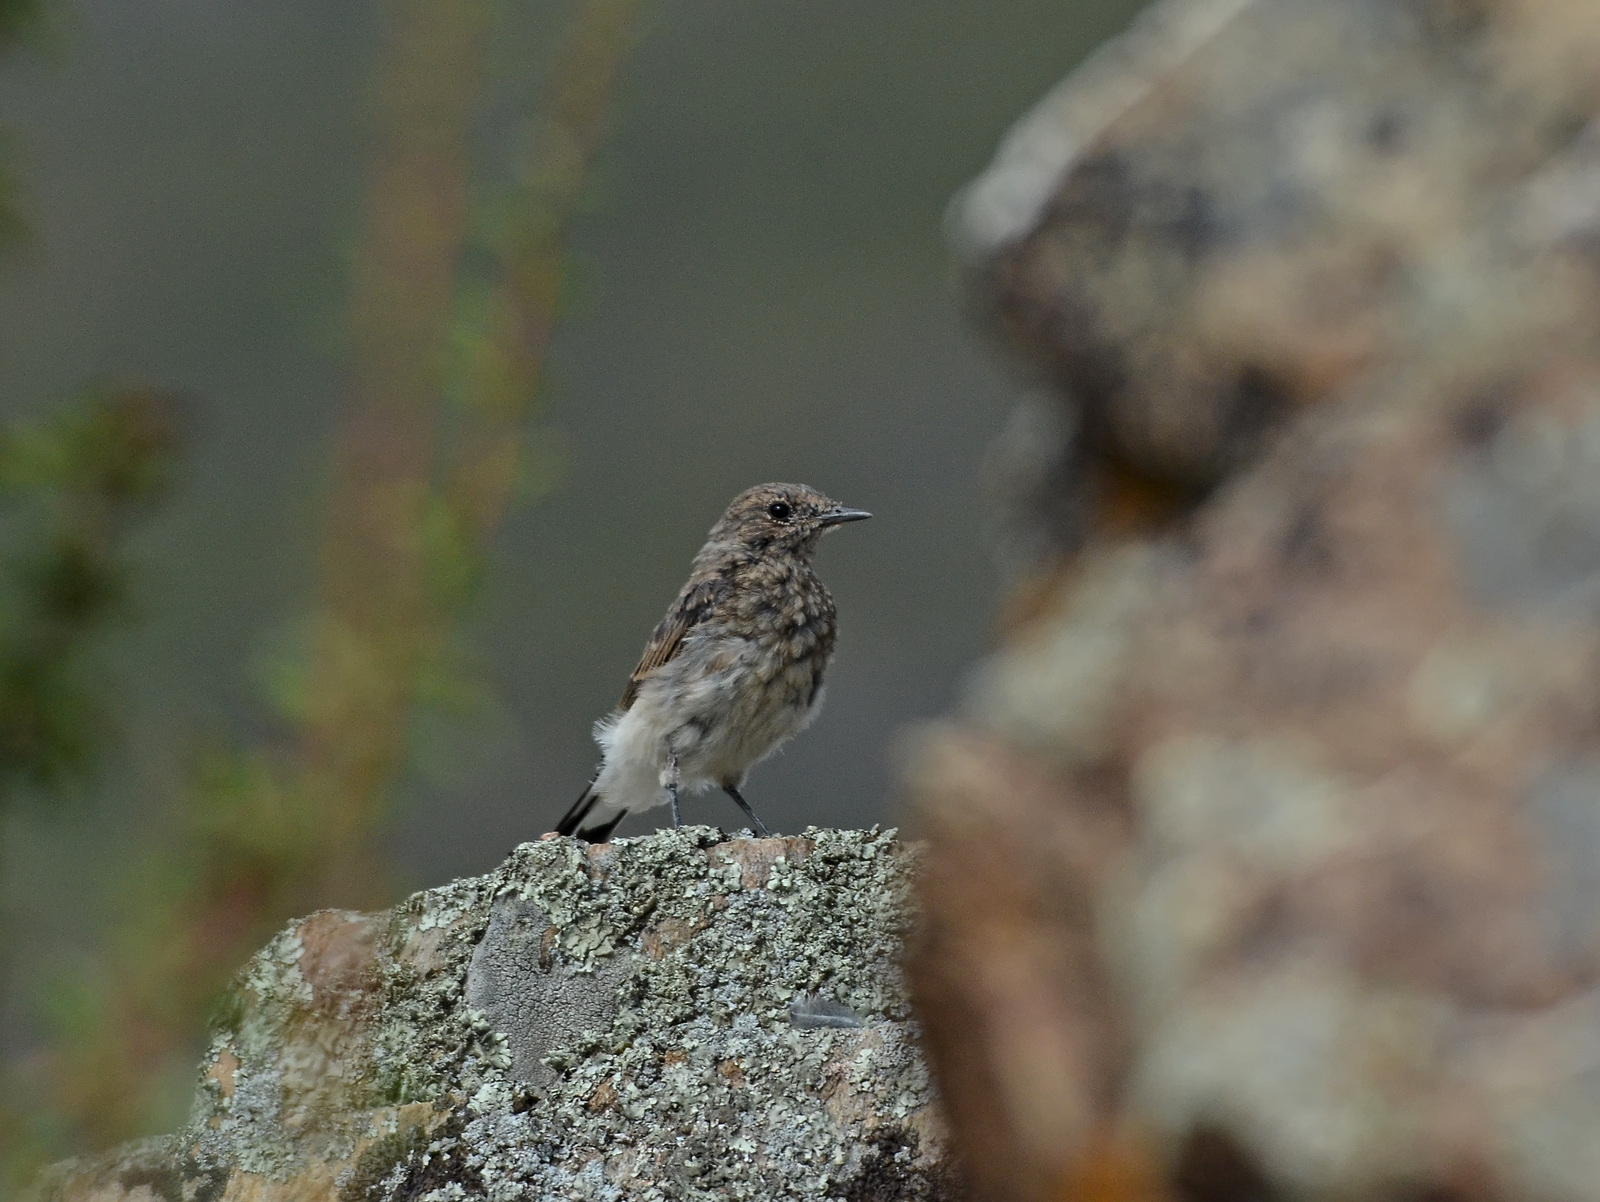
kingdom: Animalia
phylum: Chordata
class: Aves
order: Passeriformes
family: Muscicapidae
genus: Oenanthe
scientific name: Oenanthe pleschanka
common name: Pied wheatear
